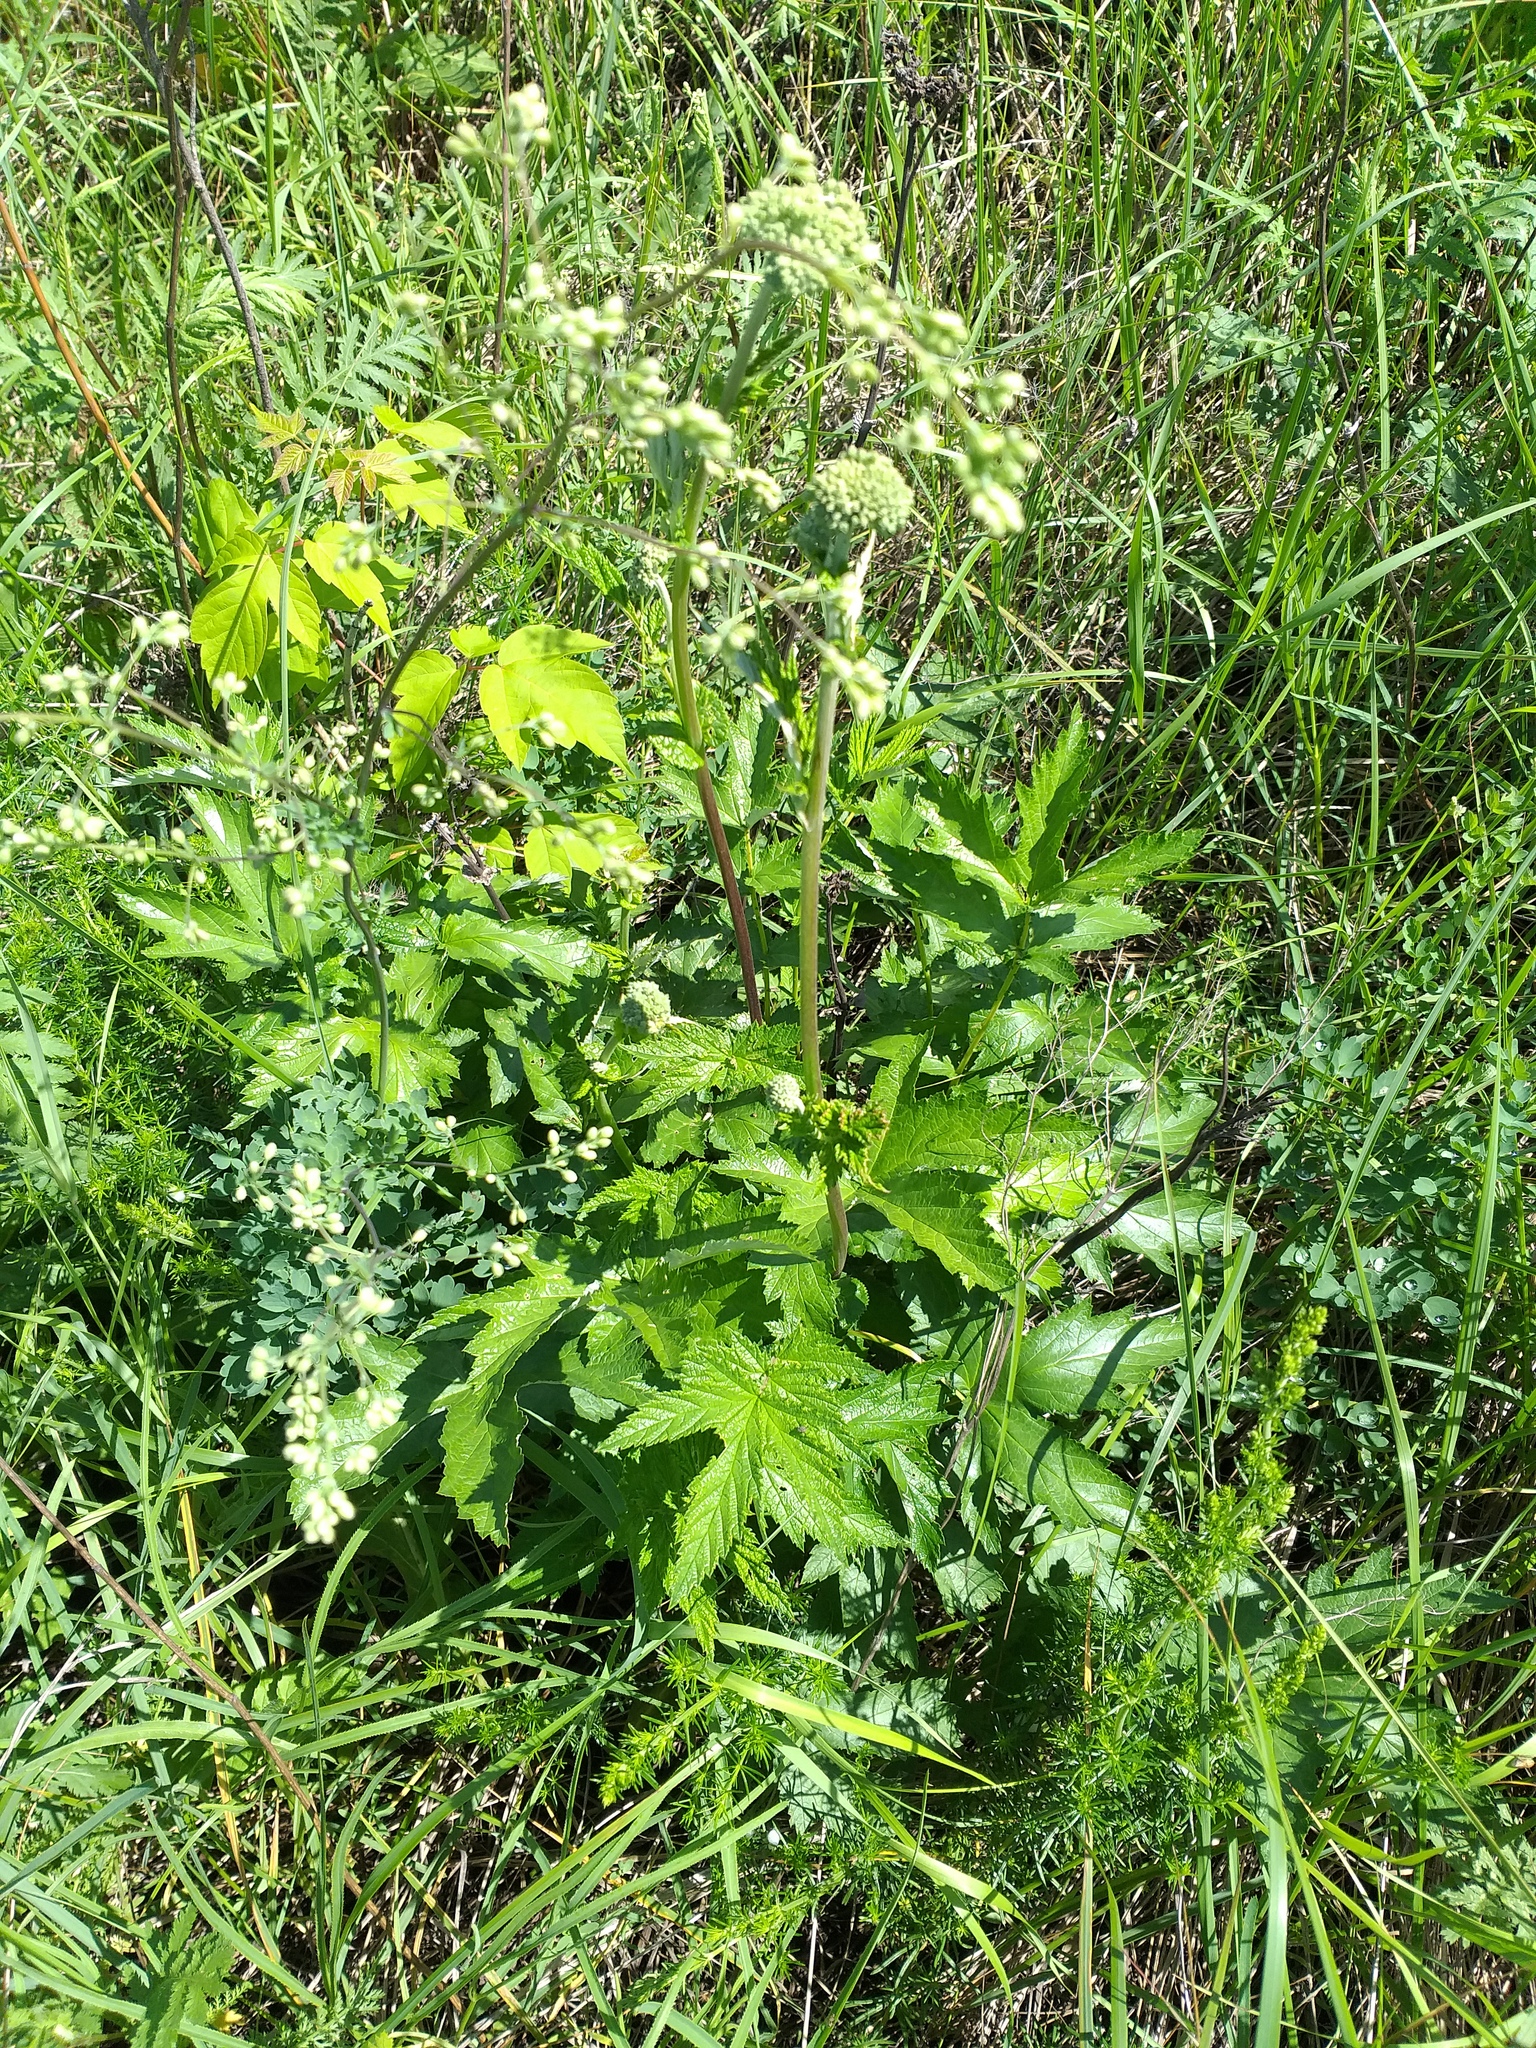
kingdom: Plantae
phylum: Tracheophyta
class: Magnoliopsida
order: Rosales
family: Rosaceae
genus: Filipendula
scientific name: Filipendula ulmaria
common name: Meadowsweet
